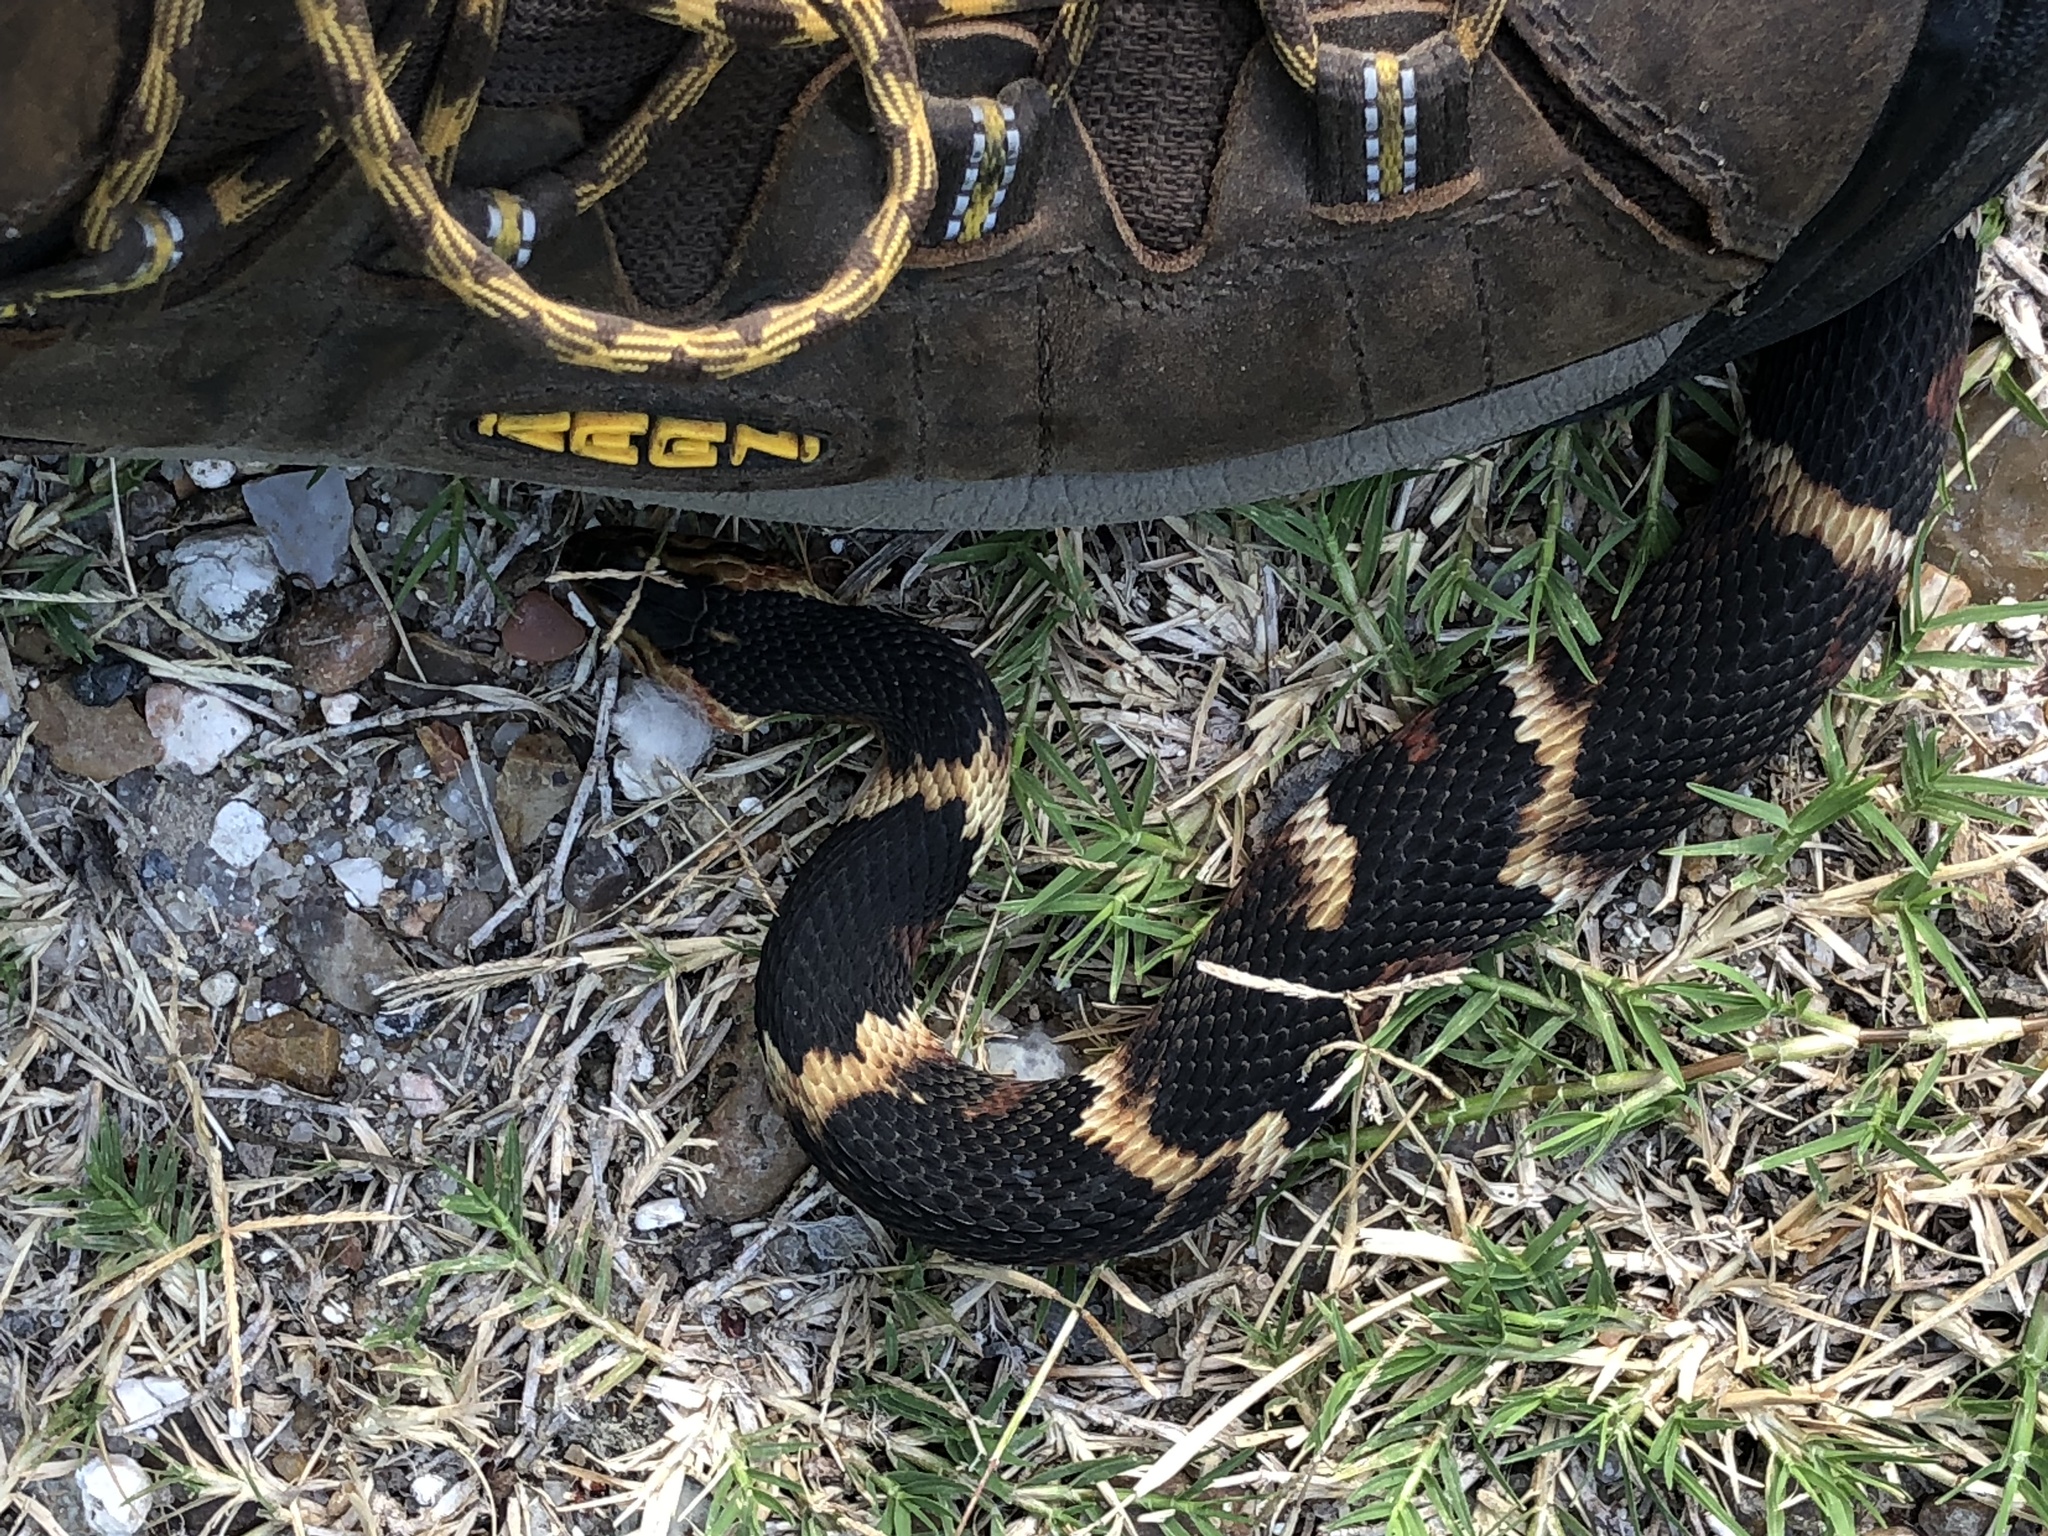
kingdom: Animalia
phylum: Chordata
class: Squamata
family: Colubridae
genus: Nerodia
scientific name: Nerodia fasciata
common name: Southern water snake
